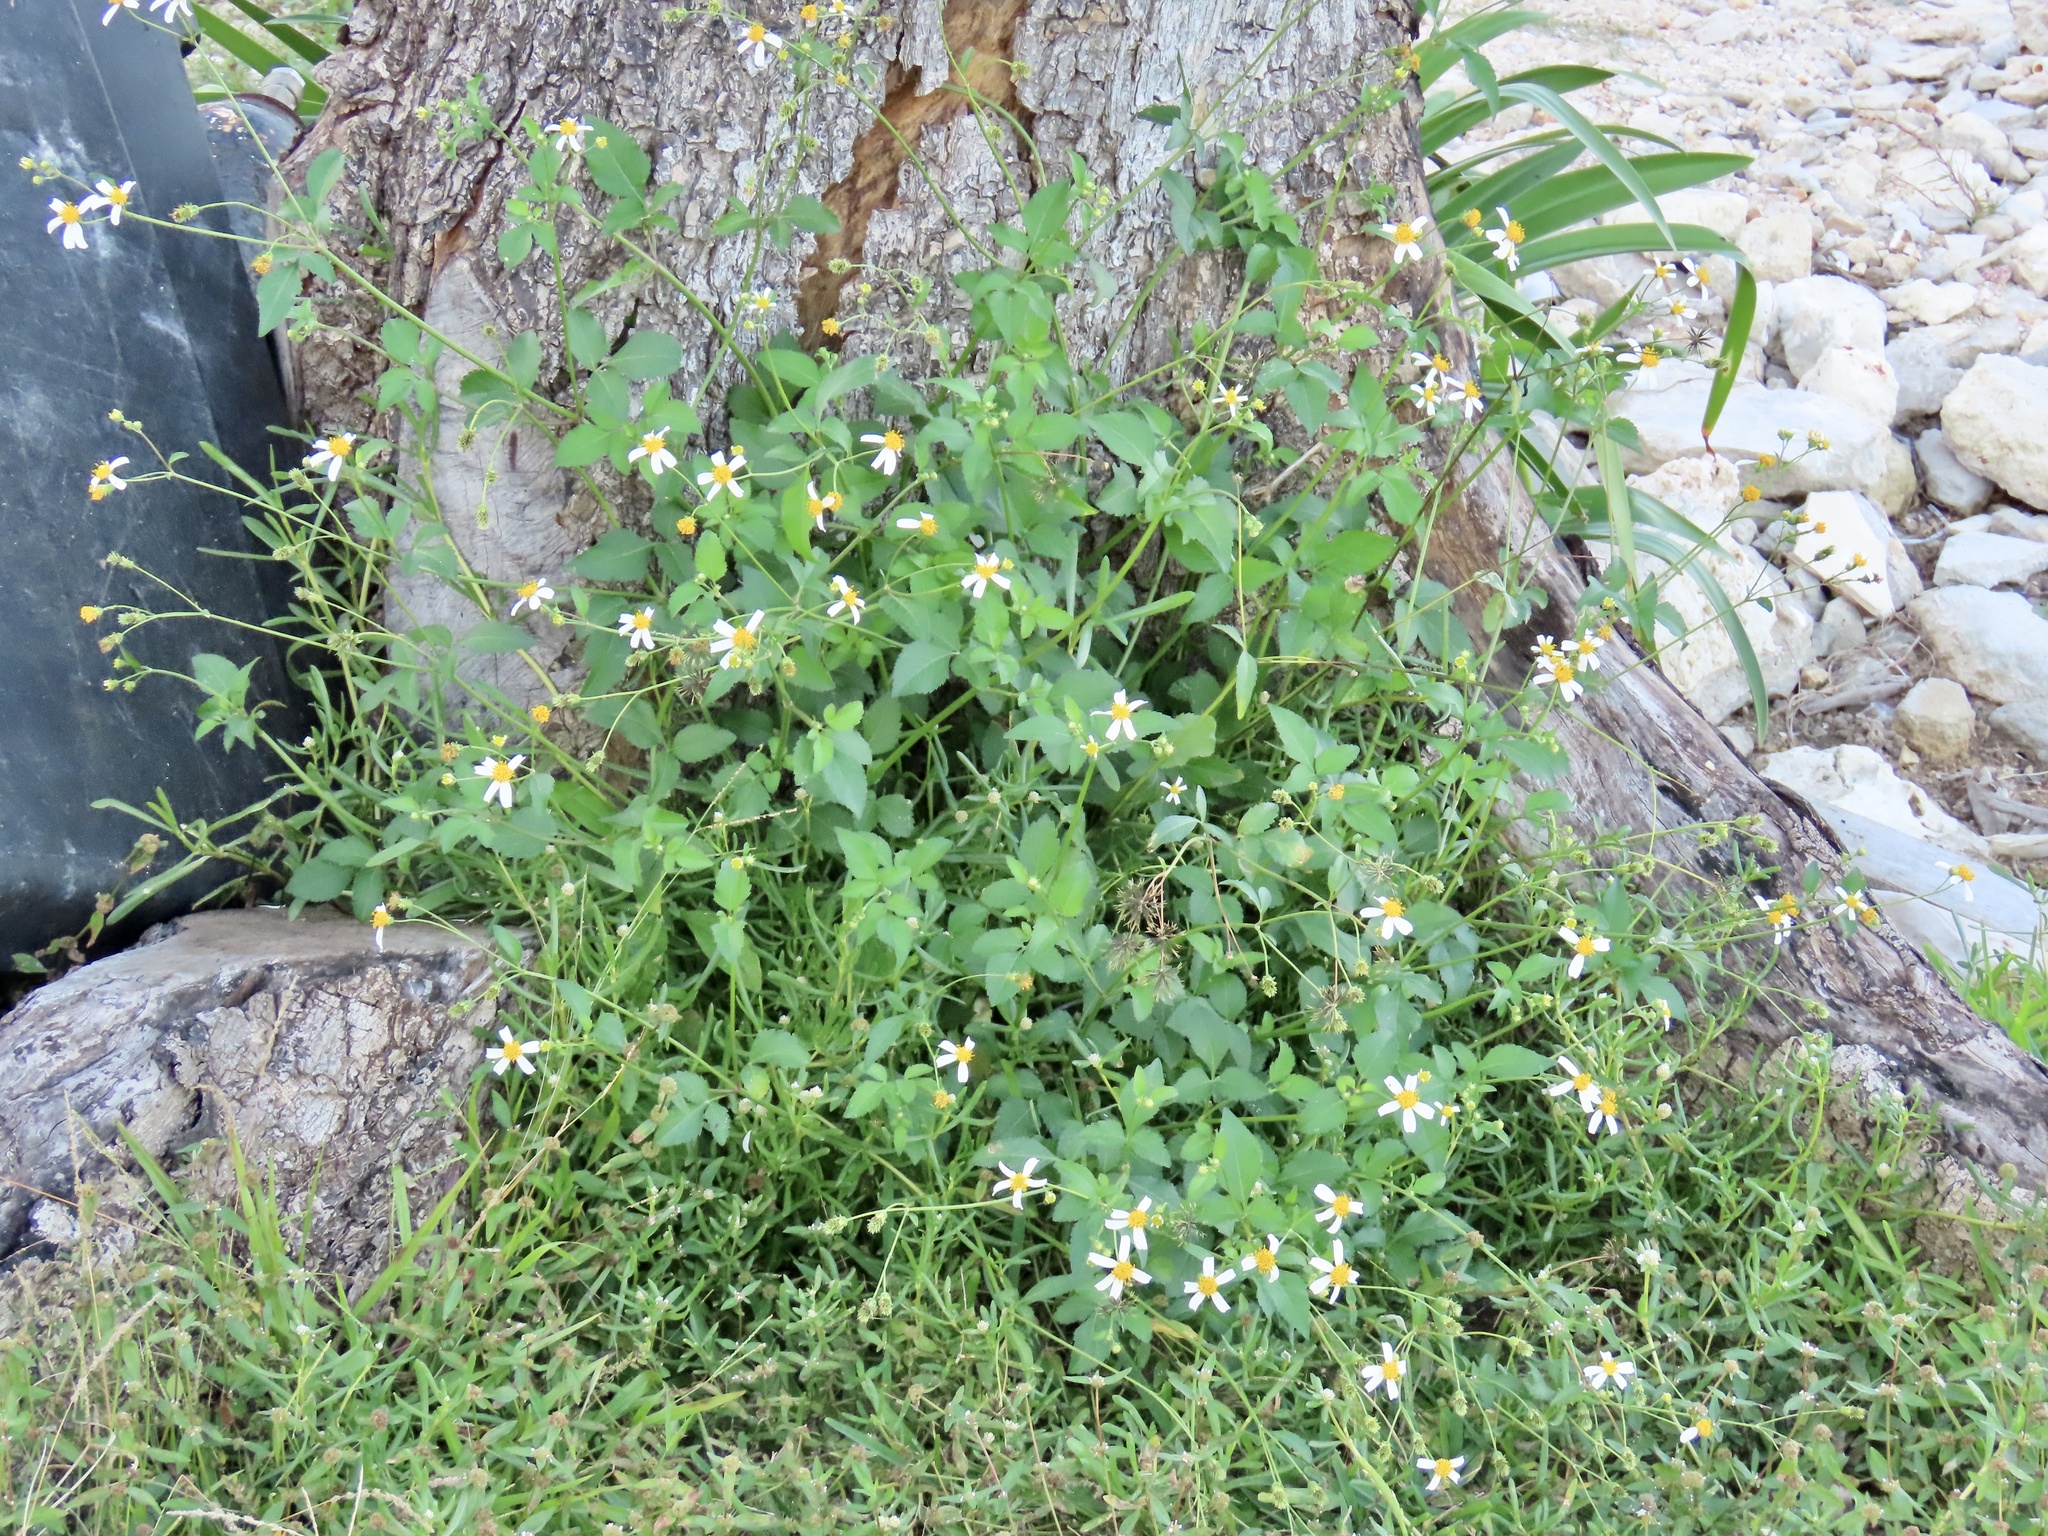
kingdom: Plantae
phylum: Tracheophyta
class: Magnoliopsida
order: Asterales
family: Asteraceae
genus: Bidens
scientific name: Bidens alba
